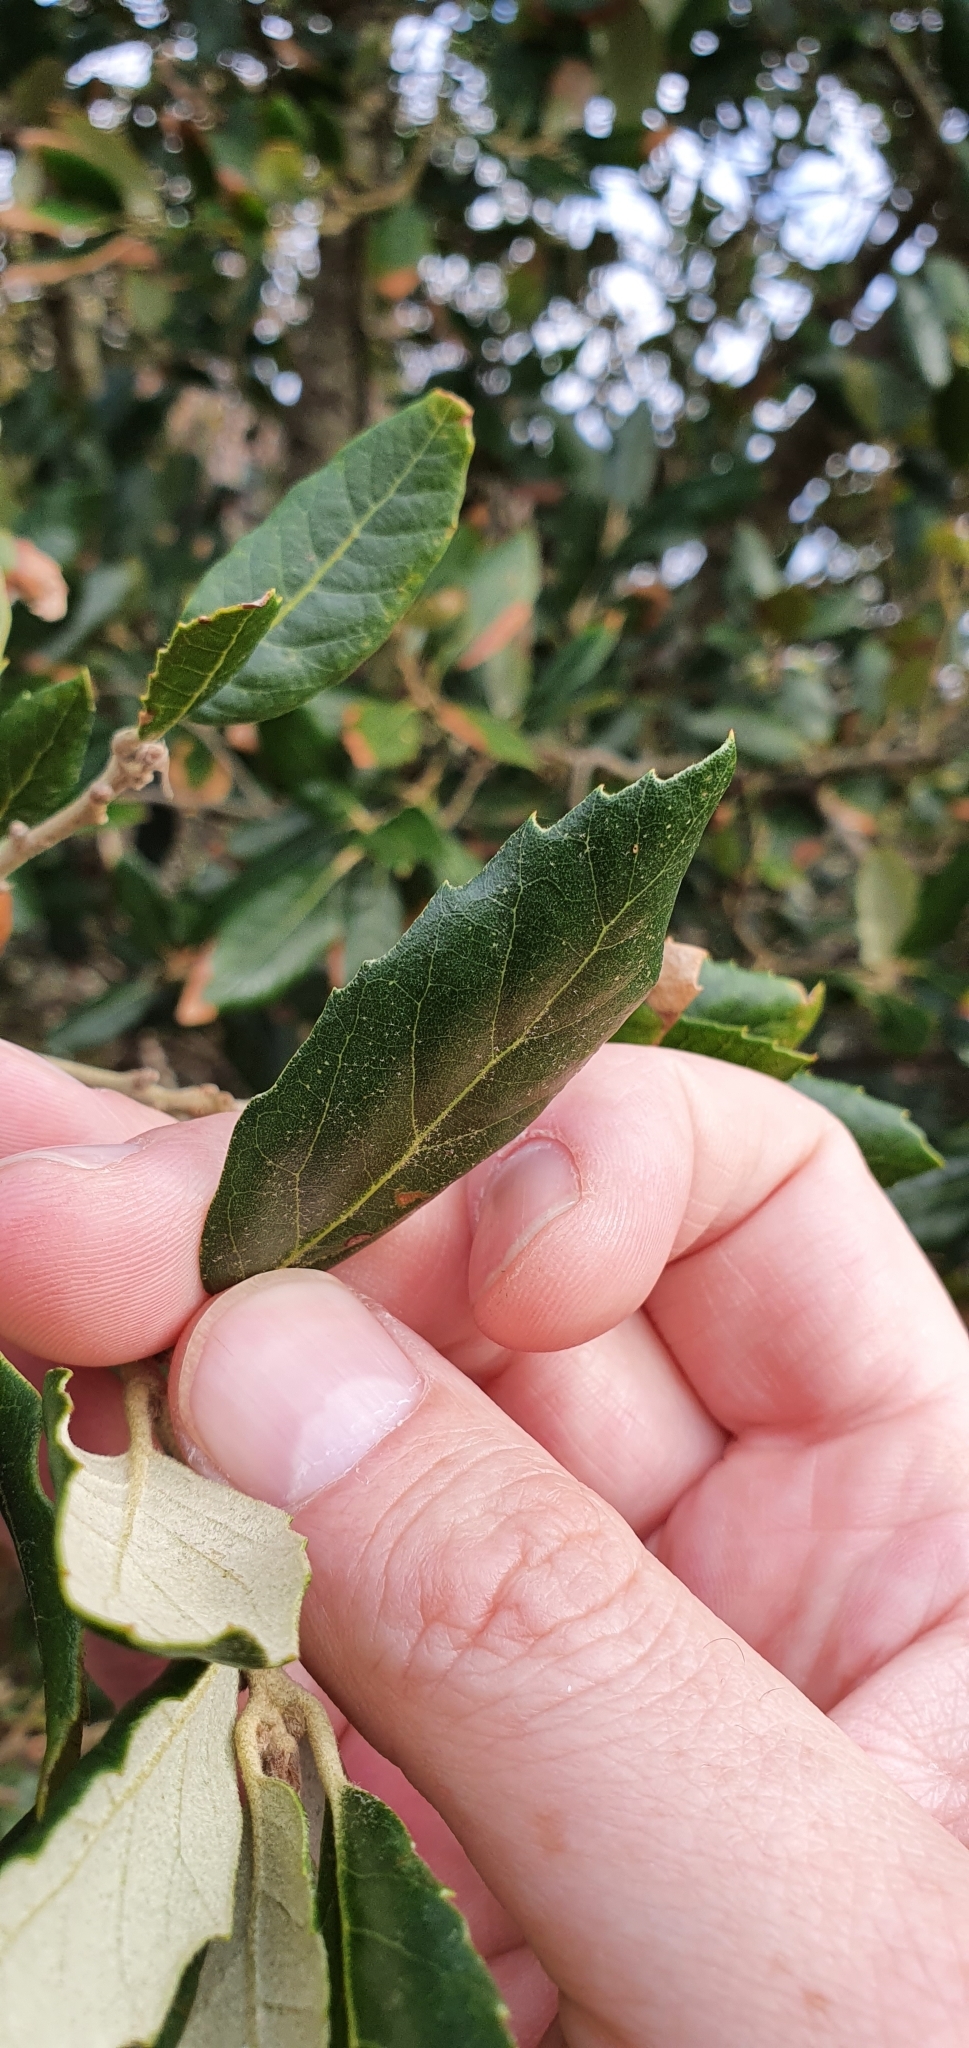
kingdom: Plantae
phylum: Tracheophyta
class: Magnoliopsida
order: Fagales
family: Fagaceae
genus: Quercus
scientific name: Quercus ilex
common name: Evergreen oak
